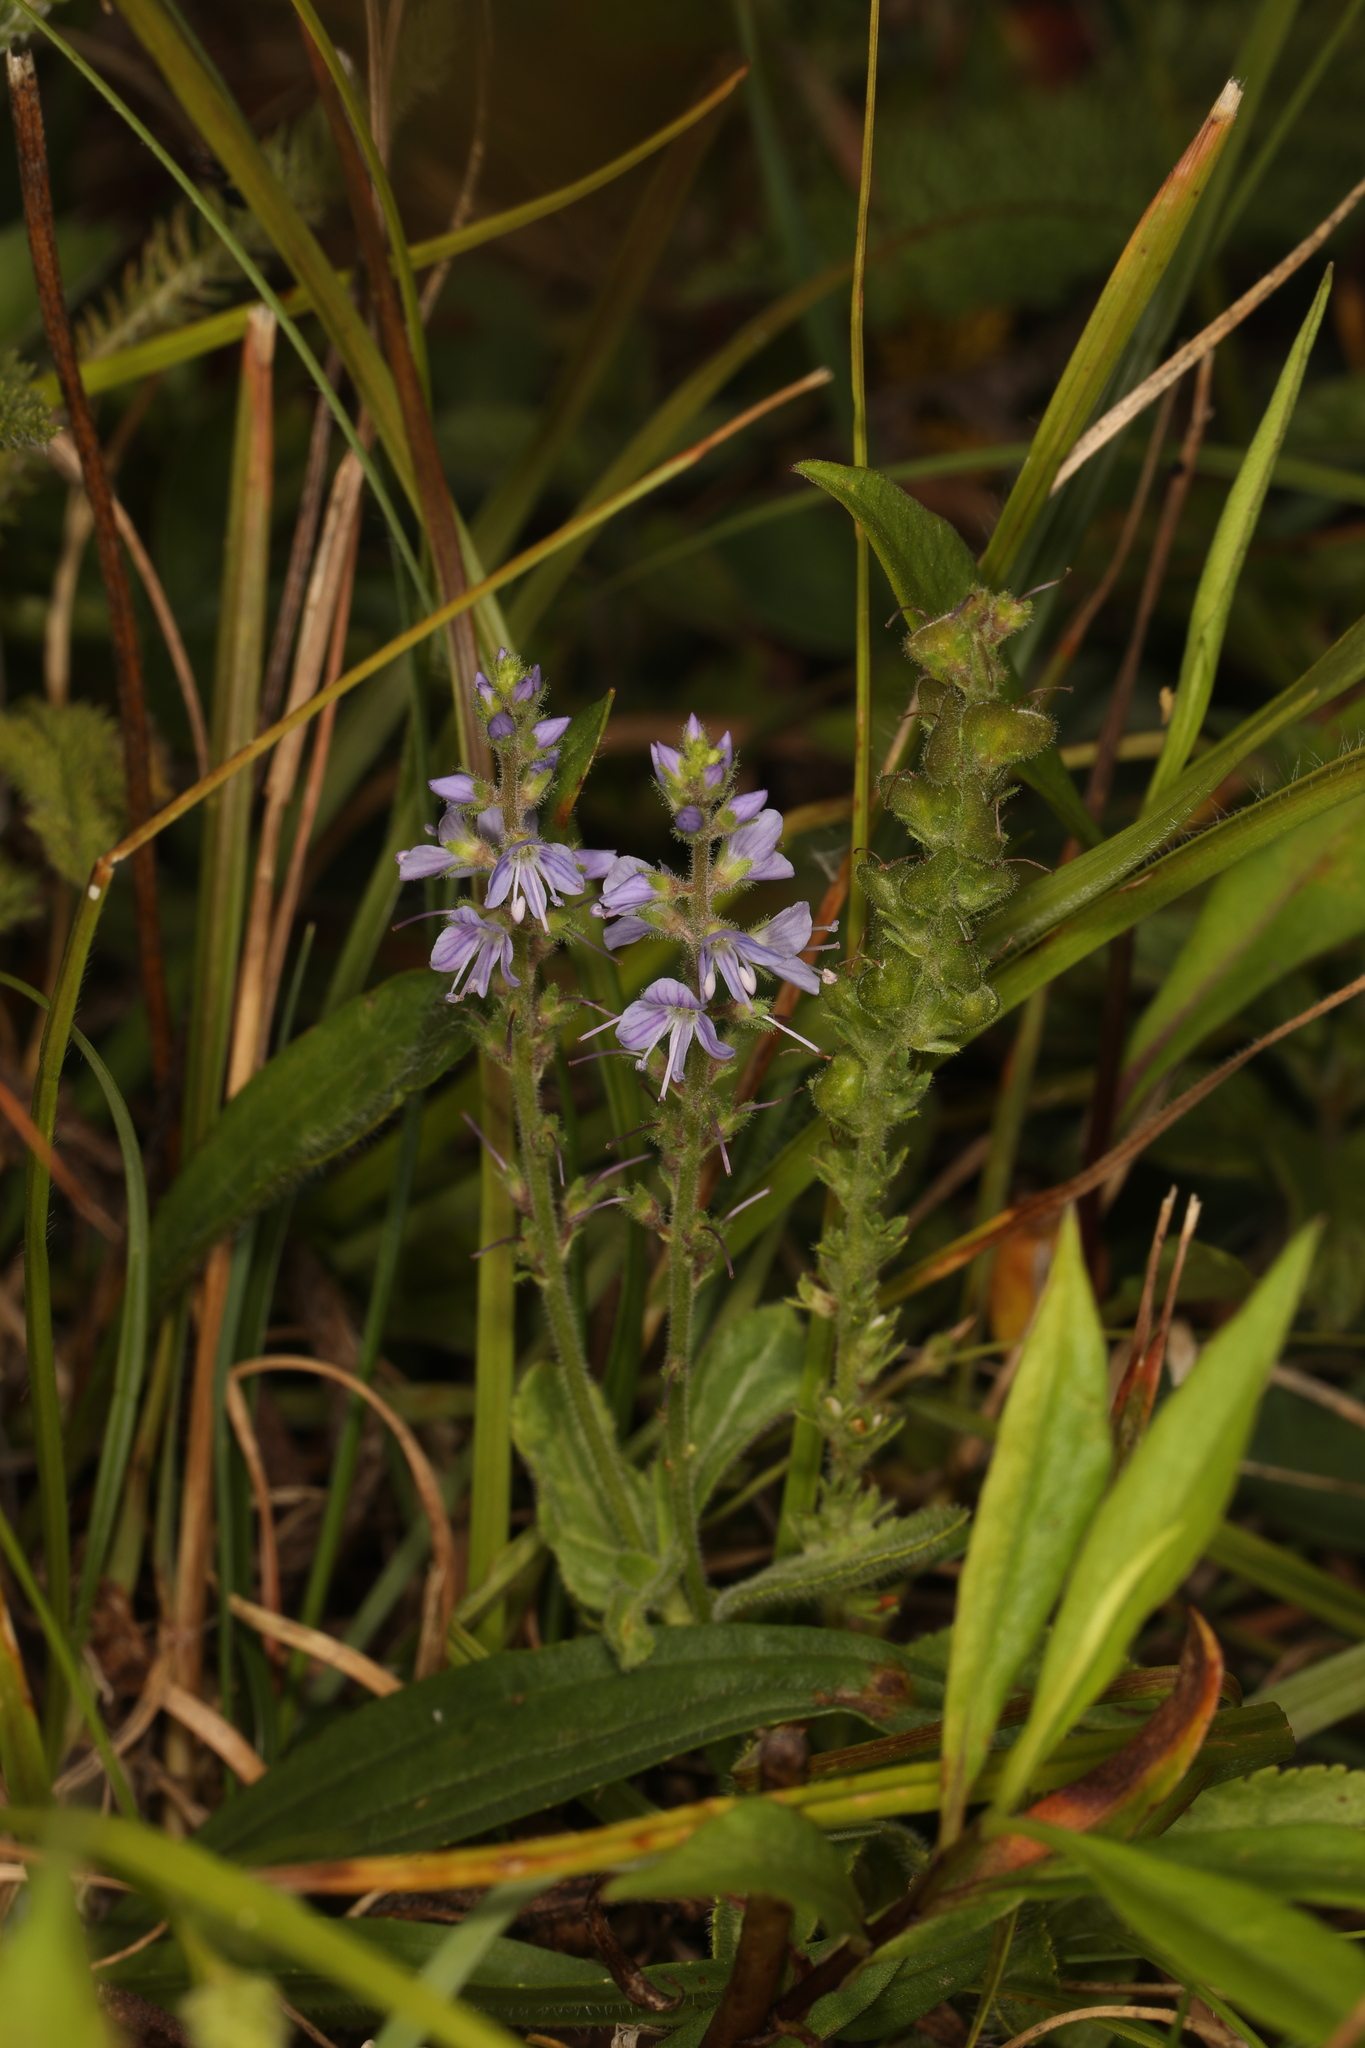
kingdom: Plantae
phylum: Tracheophyta
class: Magnoliopsida
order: Lamiales
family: Plantaginaceae
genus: Veronica
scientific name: Veronica officinalis
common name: Common speedwell
